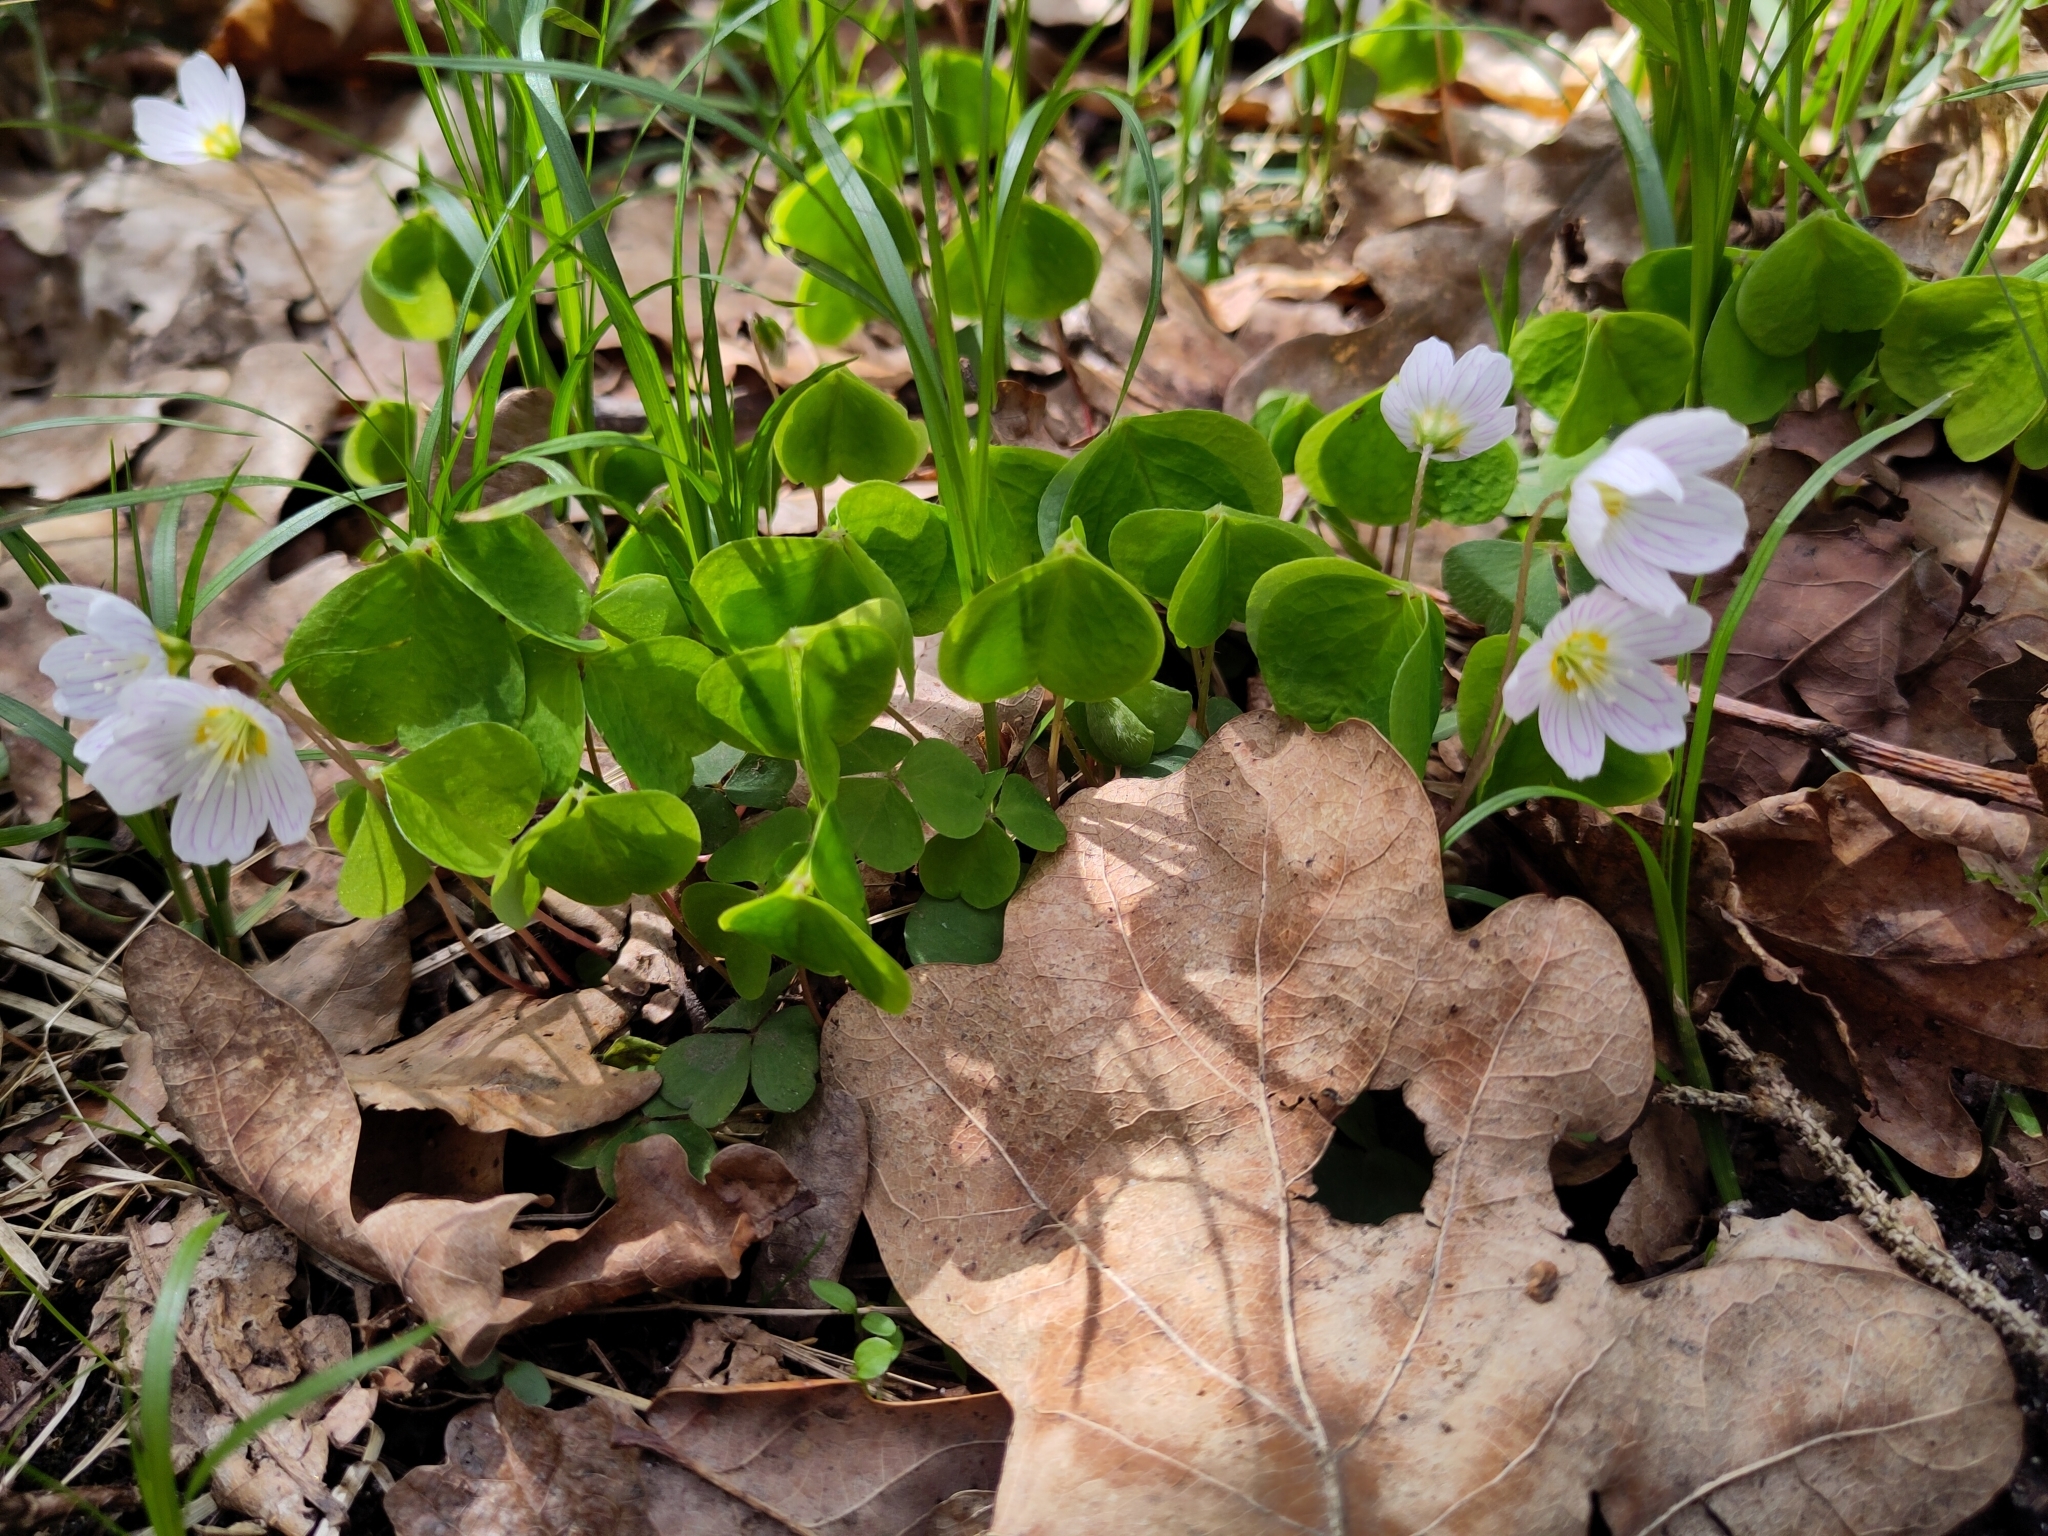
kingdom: Plantae
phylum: Tracheophyta
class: Magnoliopsida
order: Oxalidales
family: Oxalidaceae
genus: Oxalis
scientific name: Oxalis acetosella
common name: Wood-sorrel
